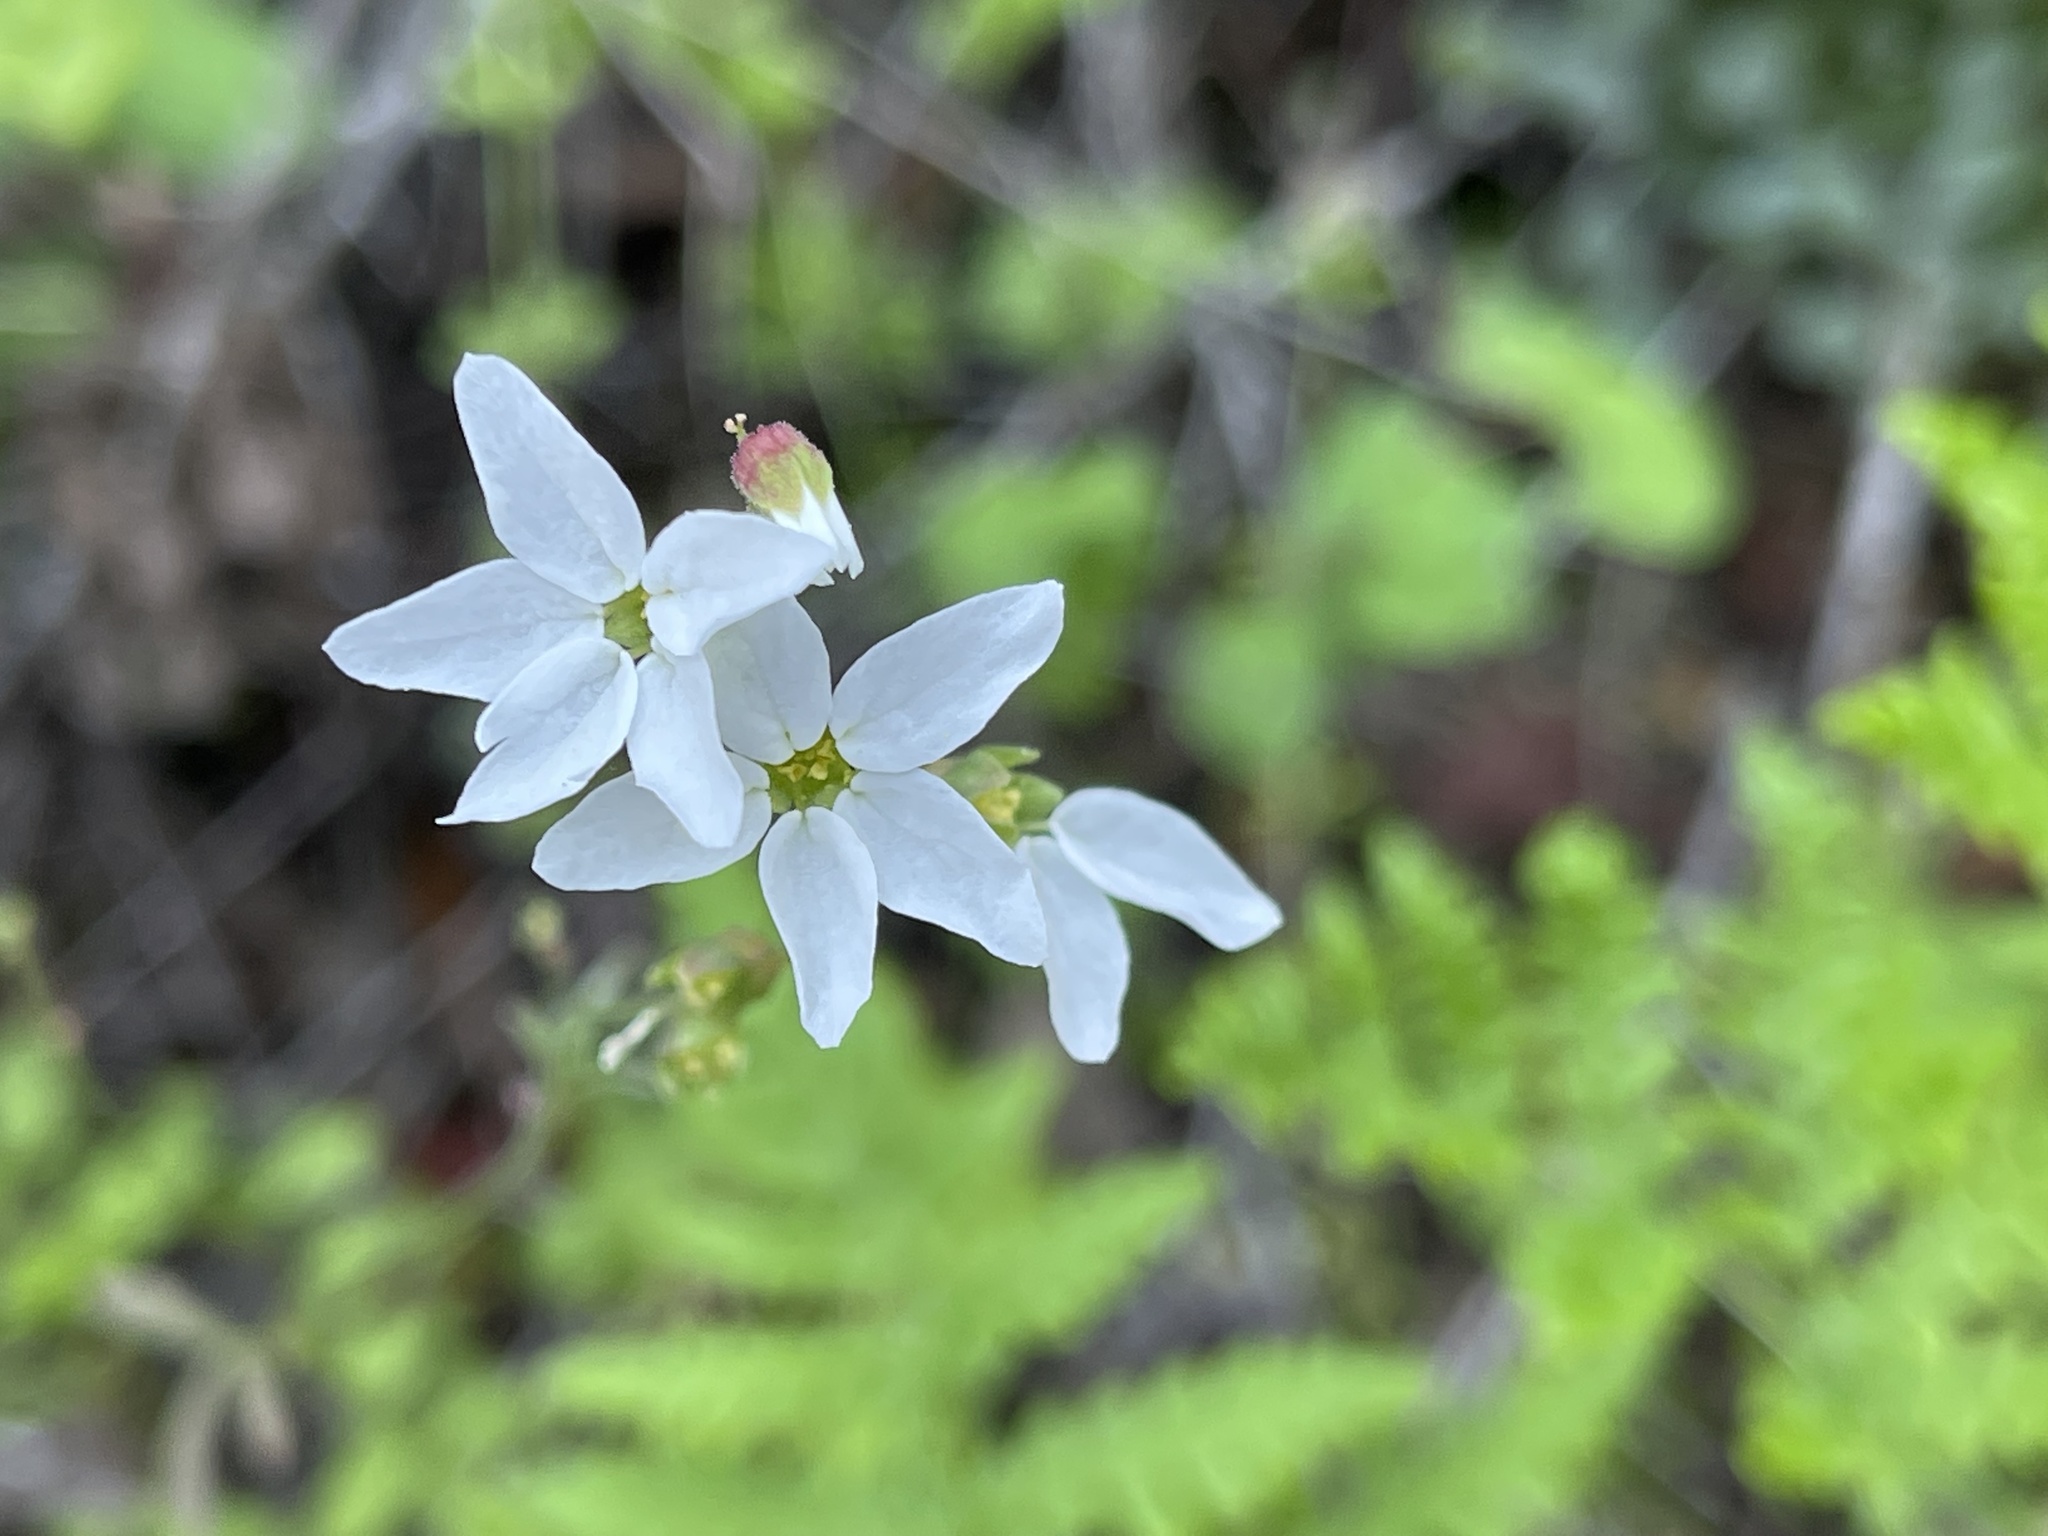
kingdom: Plantae
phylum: Tracheophyta
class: Magnoliopsida
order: Saxifragales
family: Saxifragaceae
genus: Lithophragma
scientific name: Lithophragma heterophyllum
